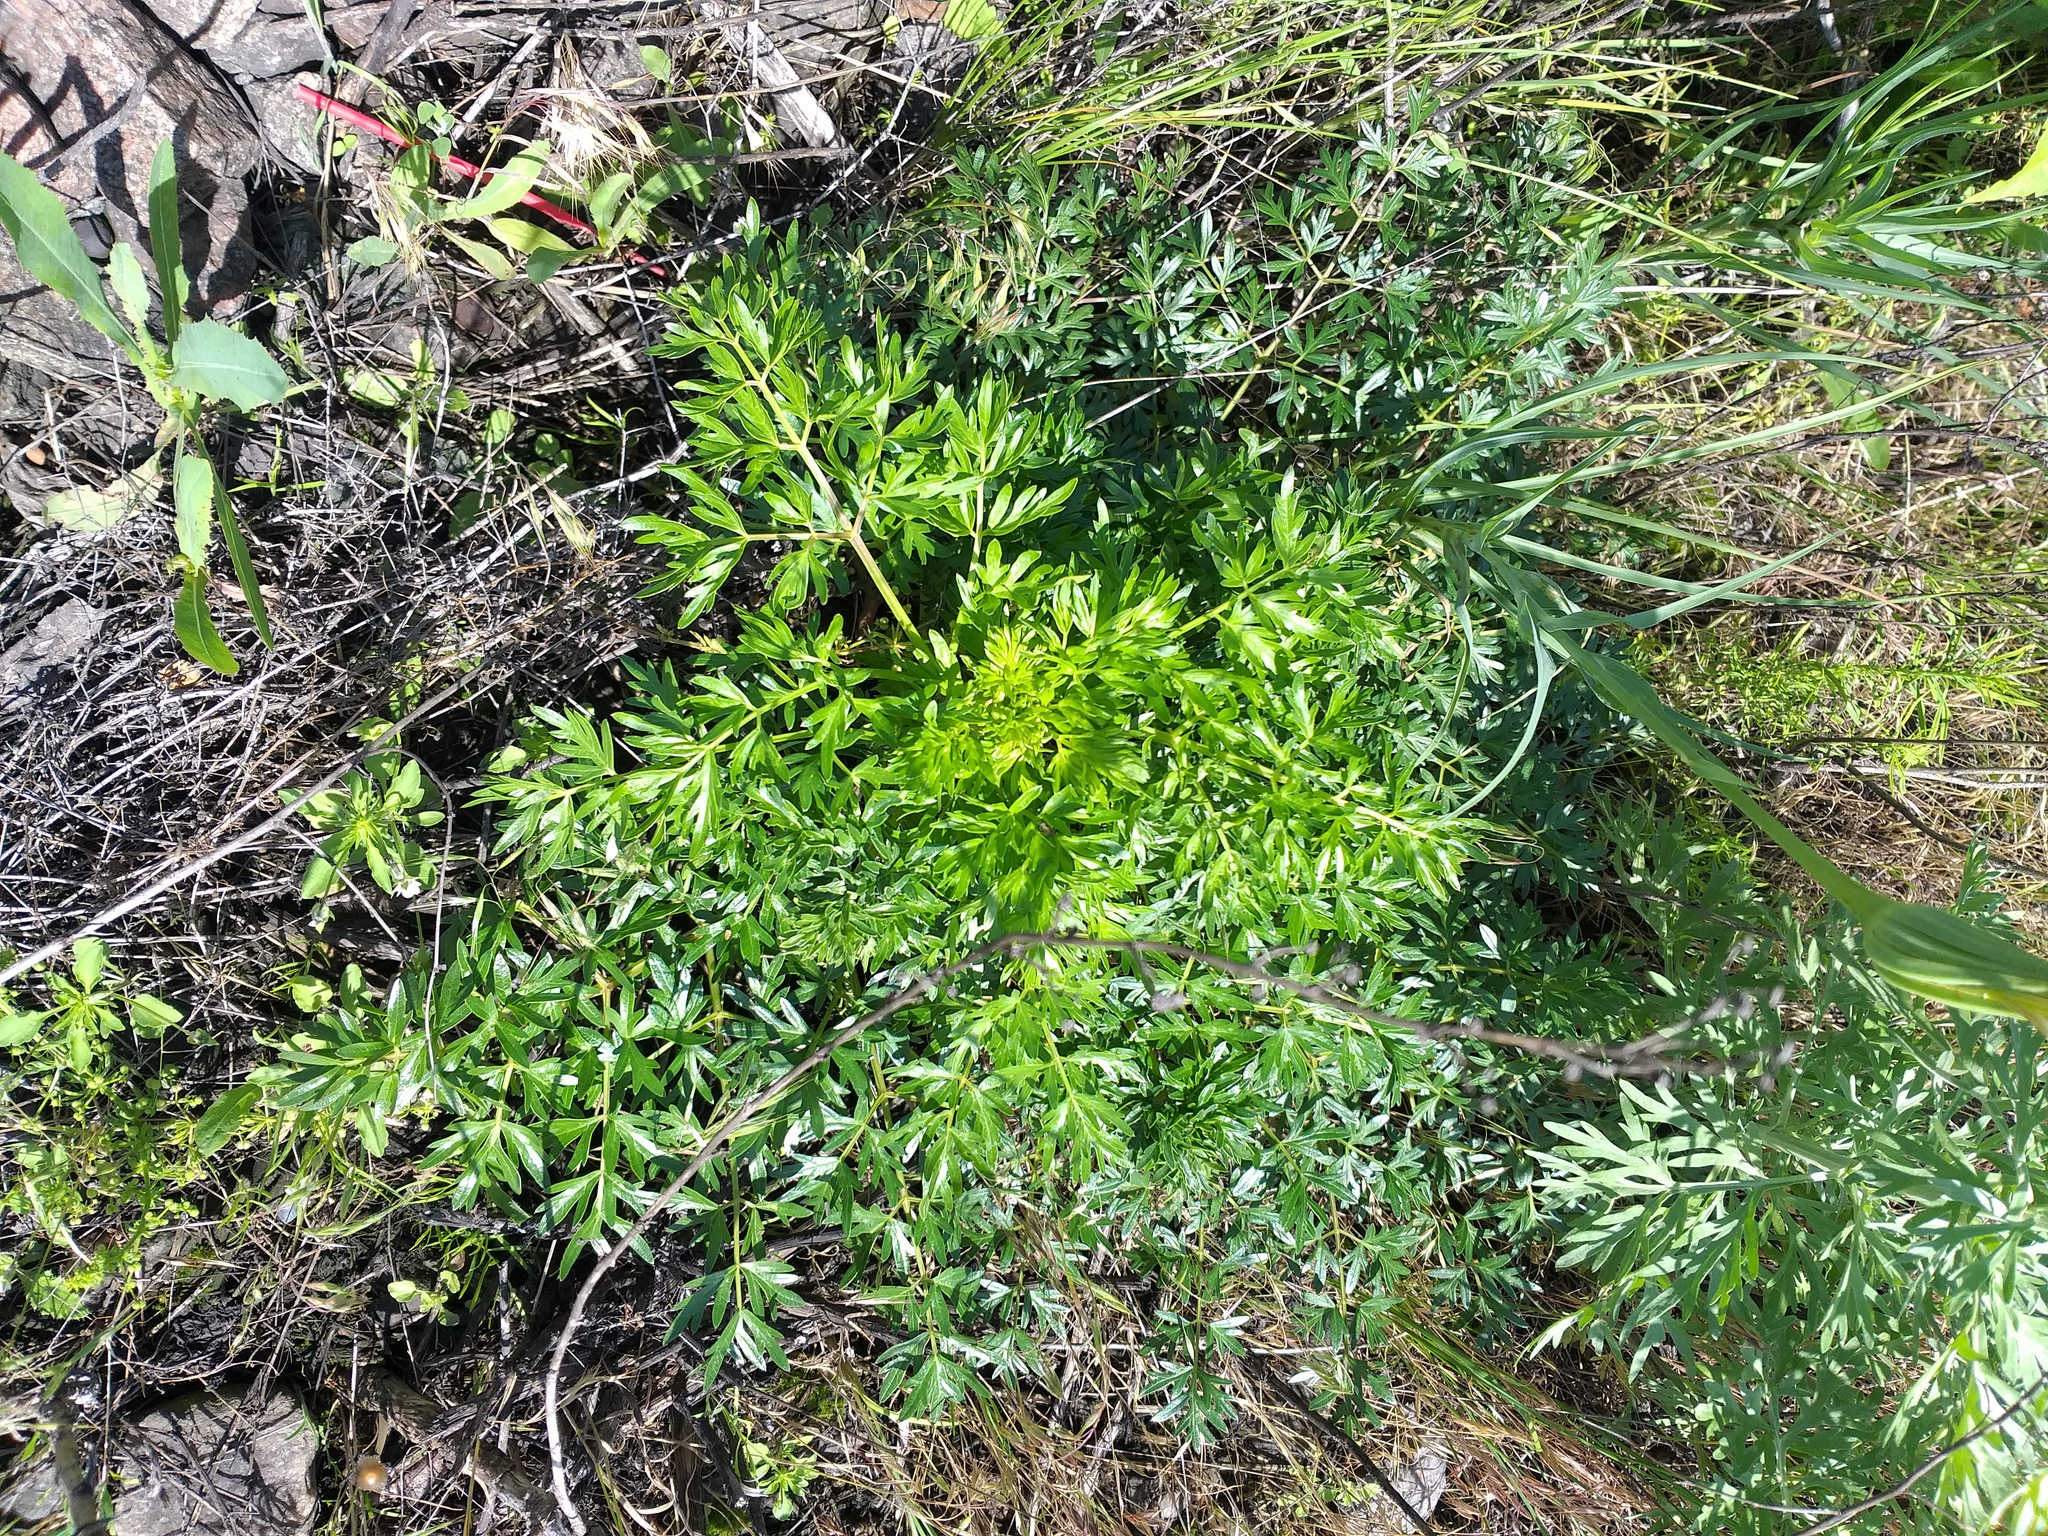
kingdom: Plantae
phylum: Tracheophyta
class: Magnoliopsida
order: Apiales
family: Apiaceae
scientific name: Apiaceae
